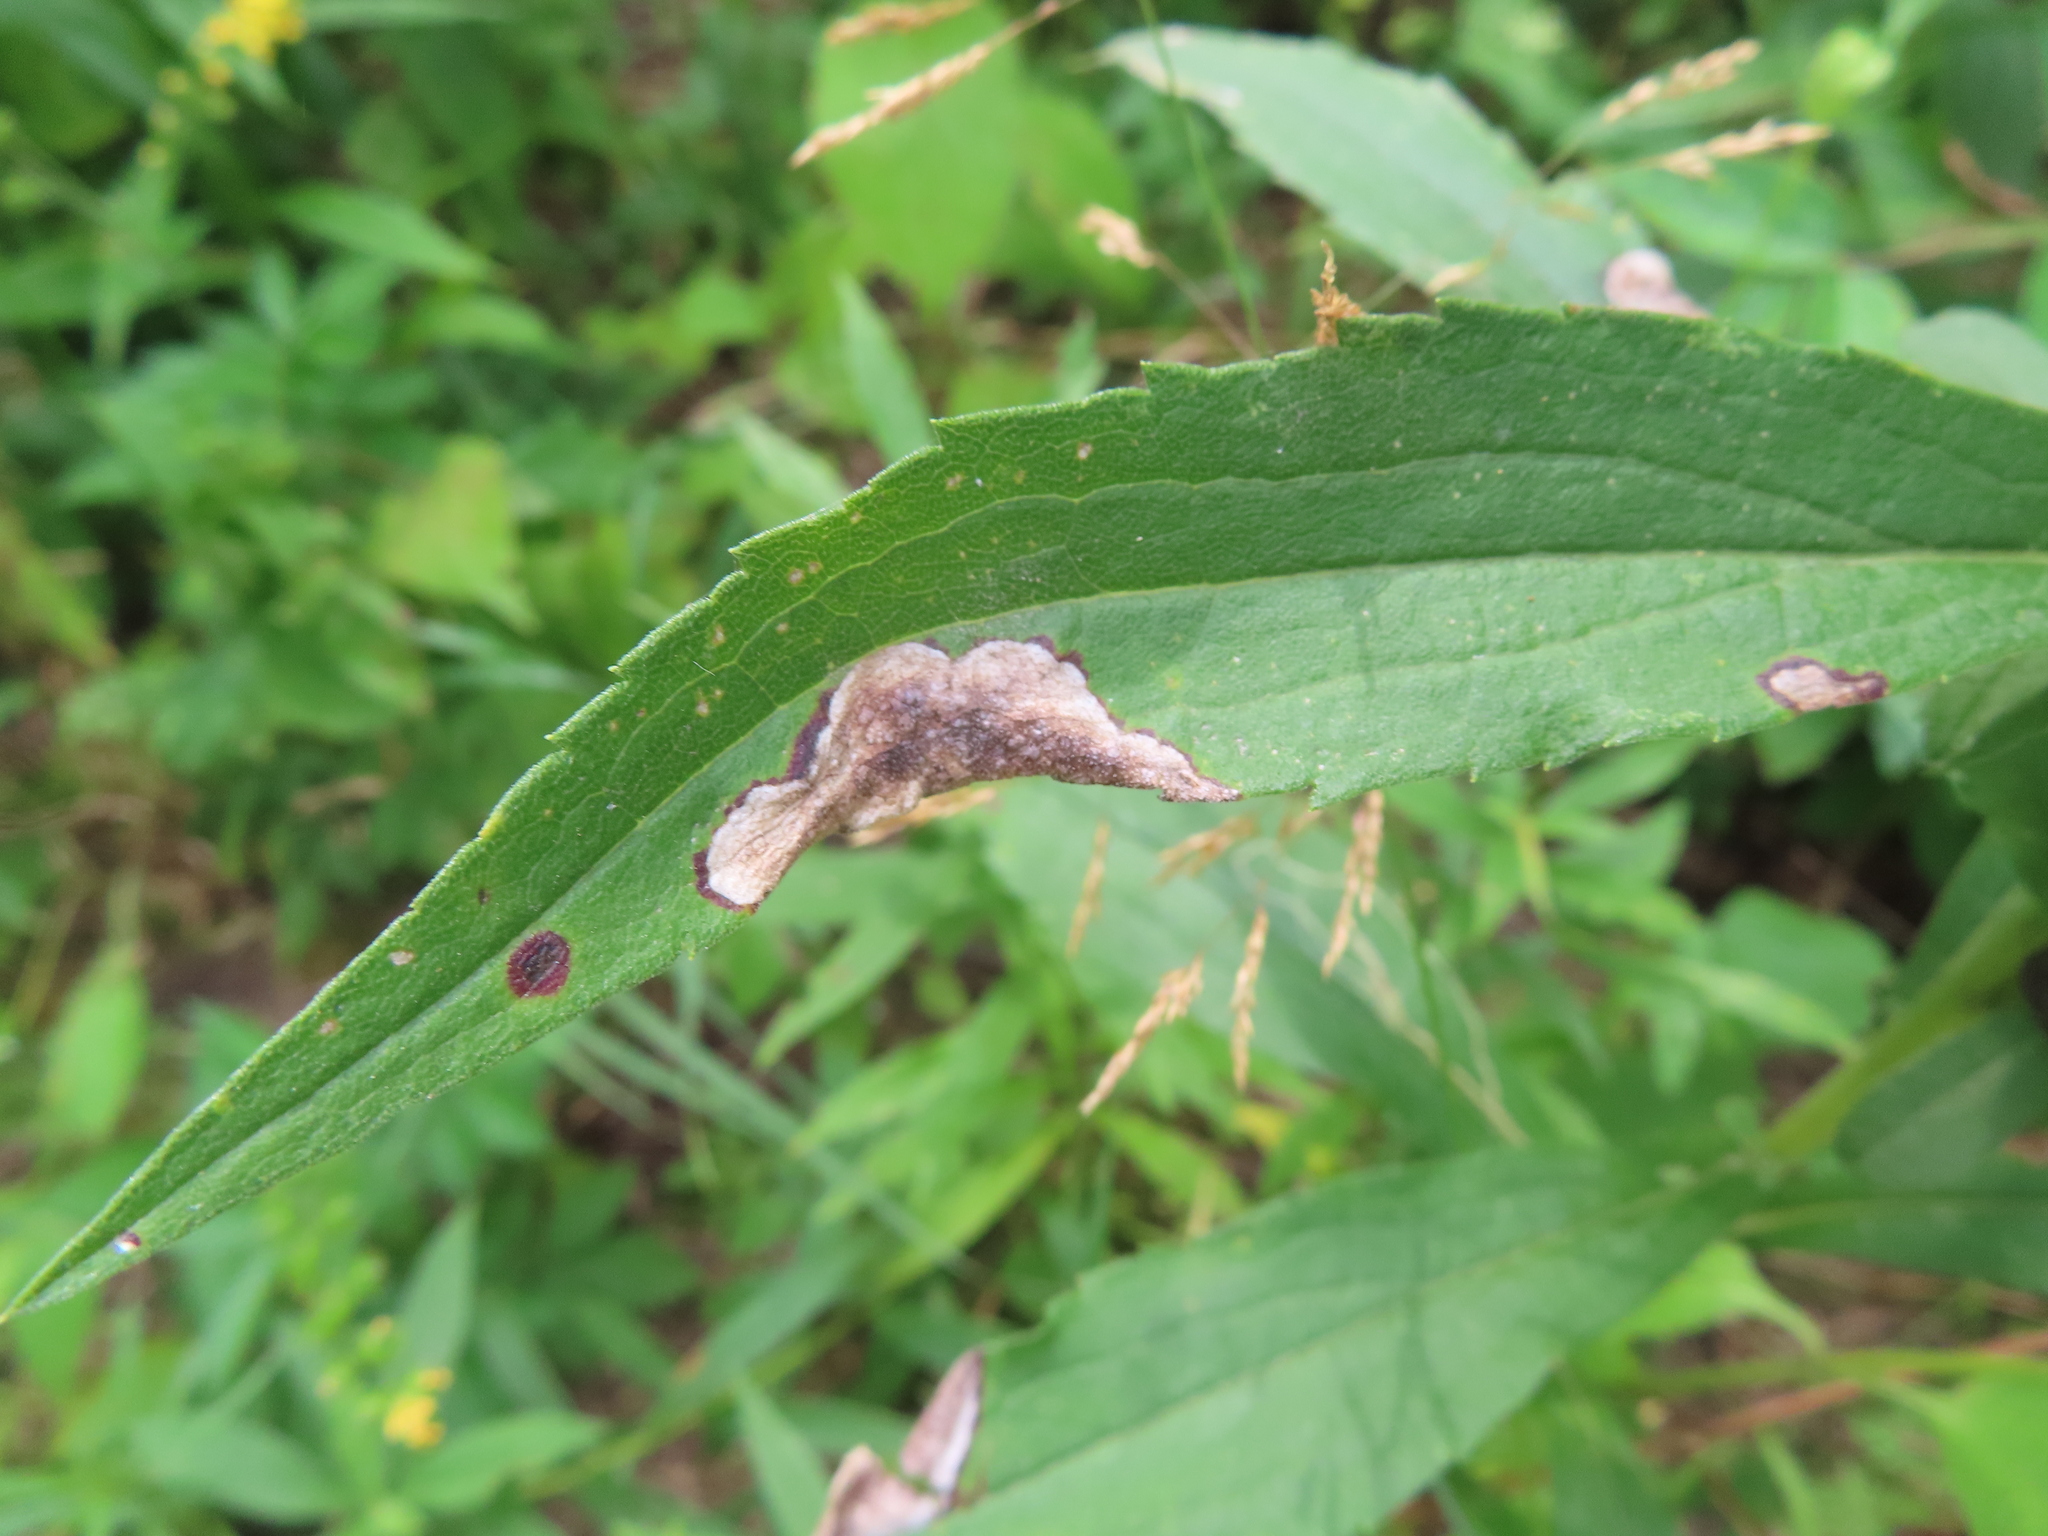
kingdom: Animalia
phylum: Arthropoda
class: Insecta
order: Diptera
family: Agromyzidae
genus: Nemorimyza
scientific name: Nemorimyza posticata
